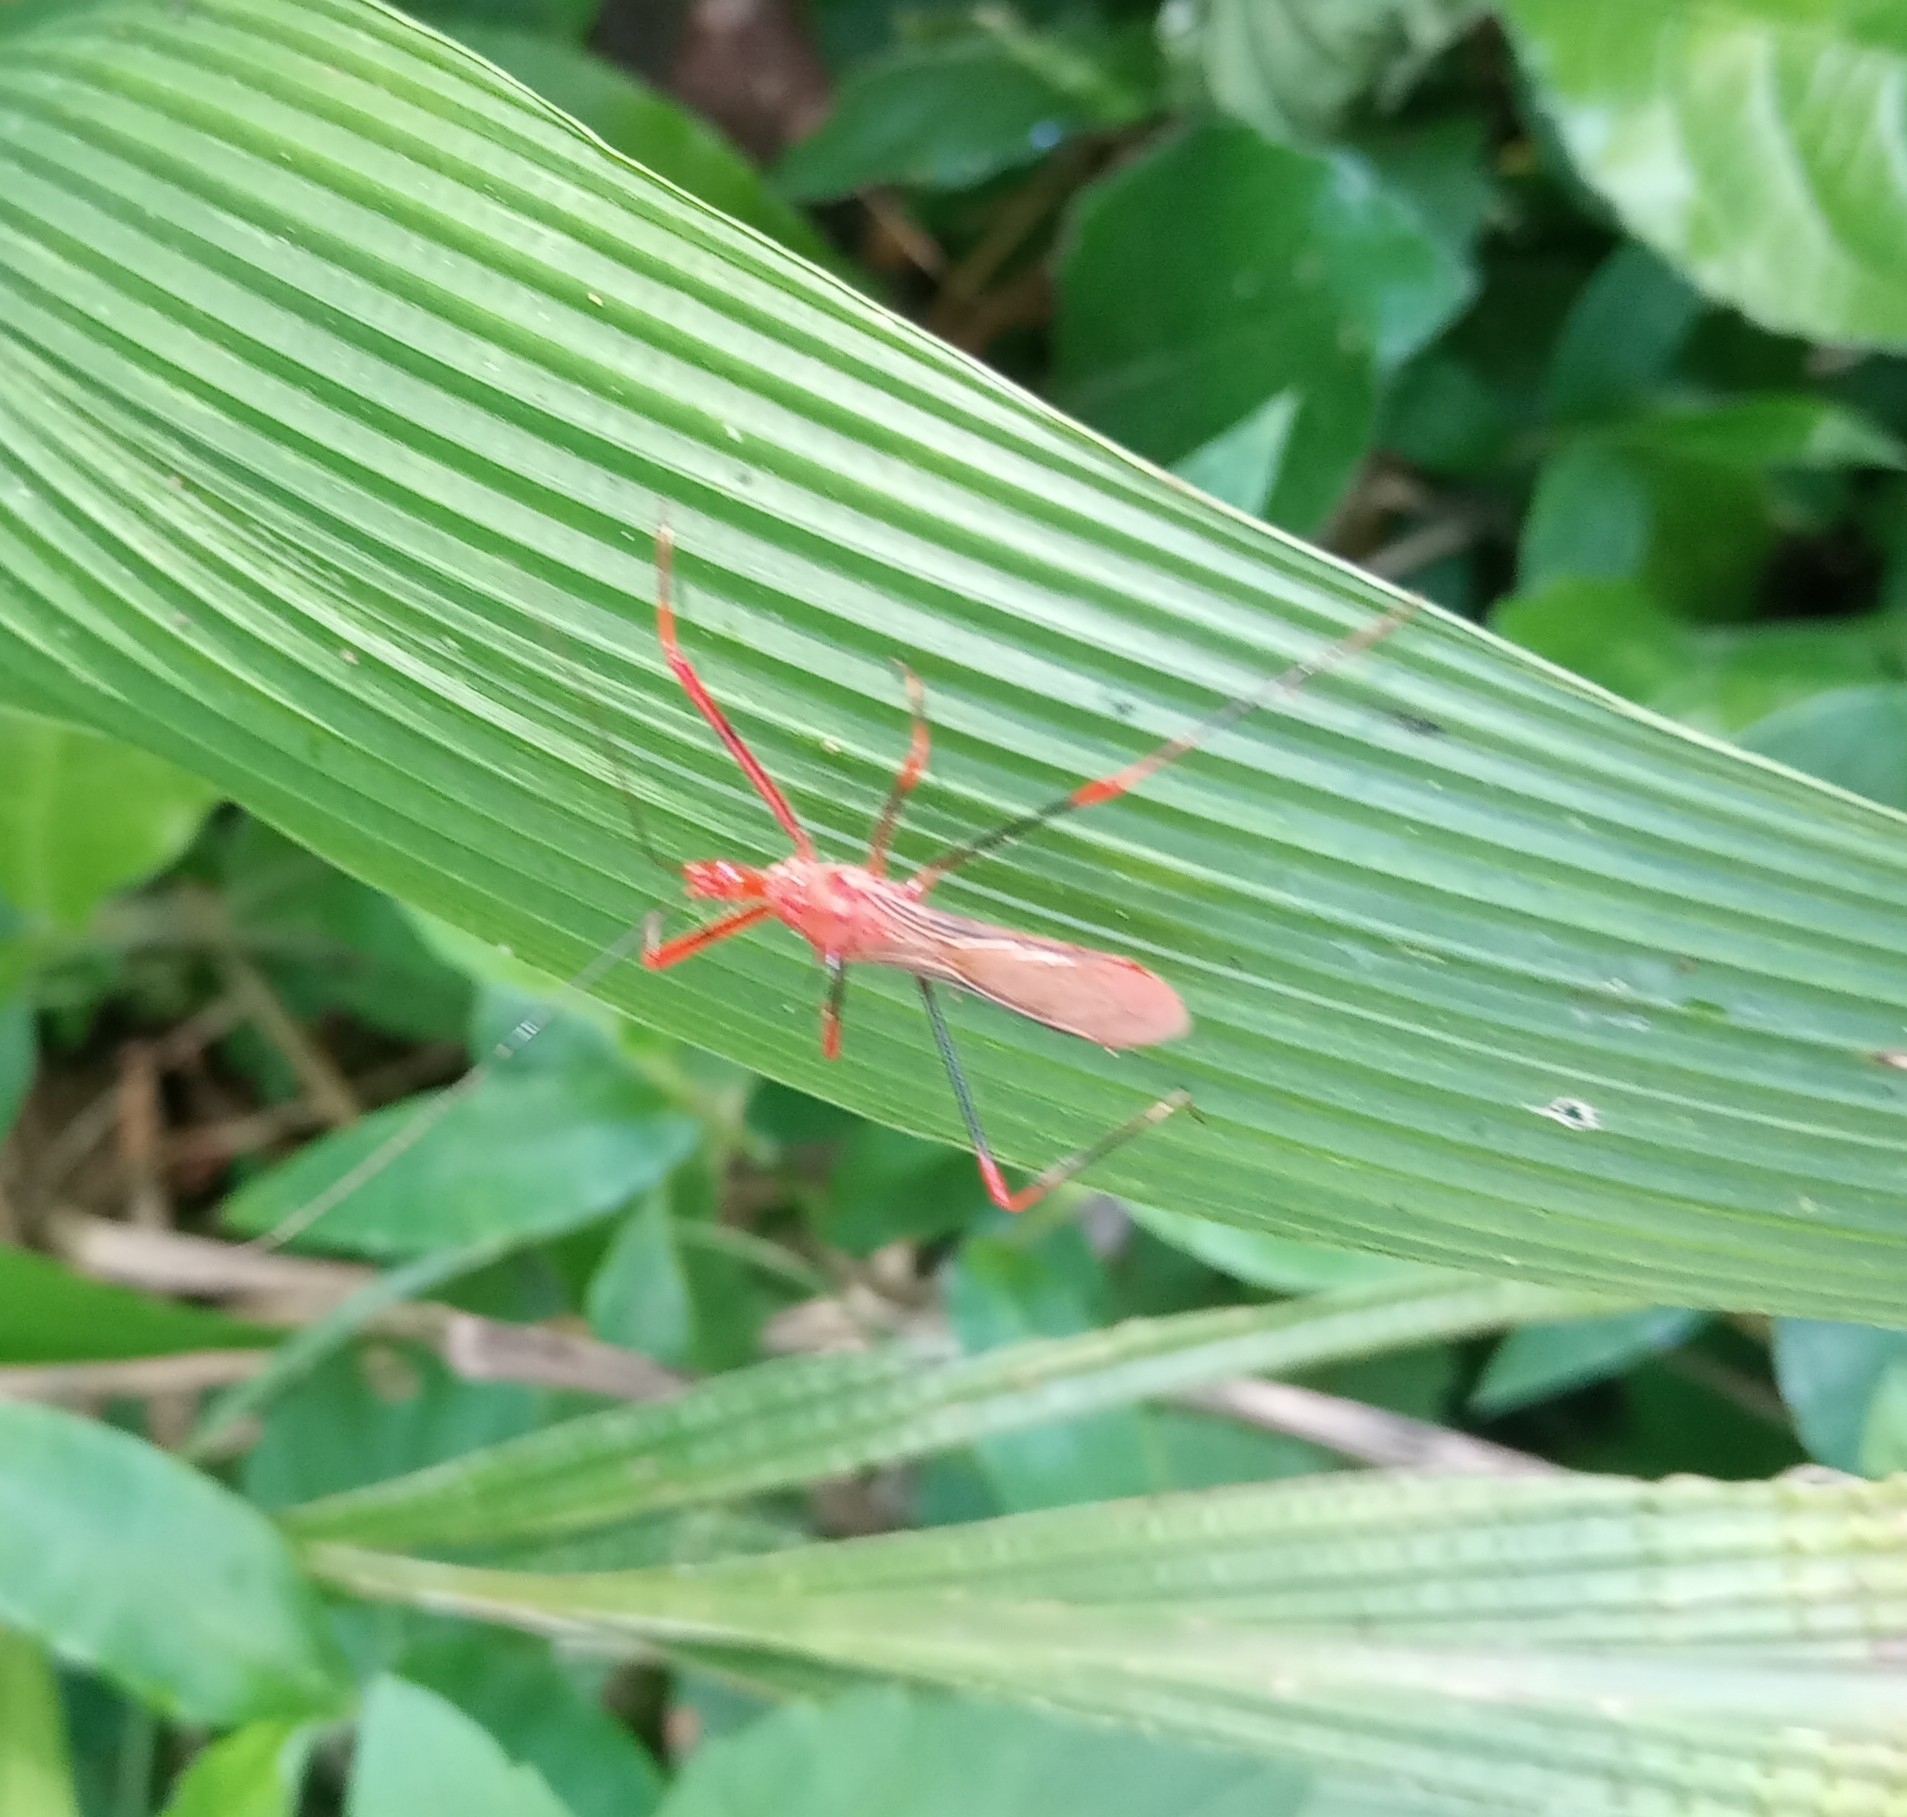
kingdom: Animalia
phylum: Arthropoda
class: Insecta
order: Hemiptera
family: Reduviidae
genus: Ricolla
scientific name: Ricolla quadrispinosa
